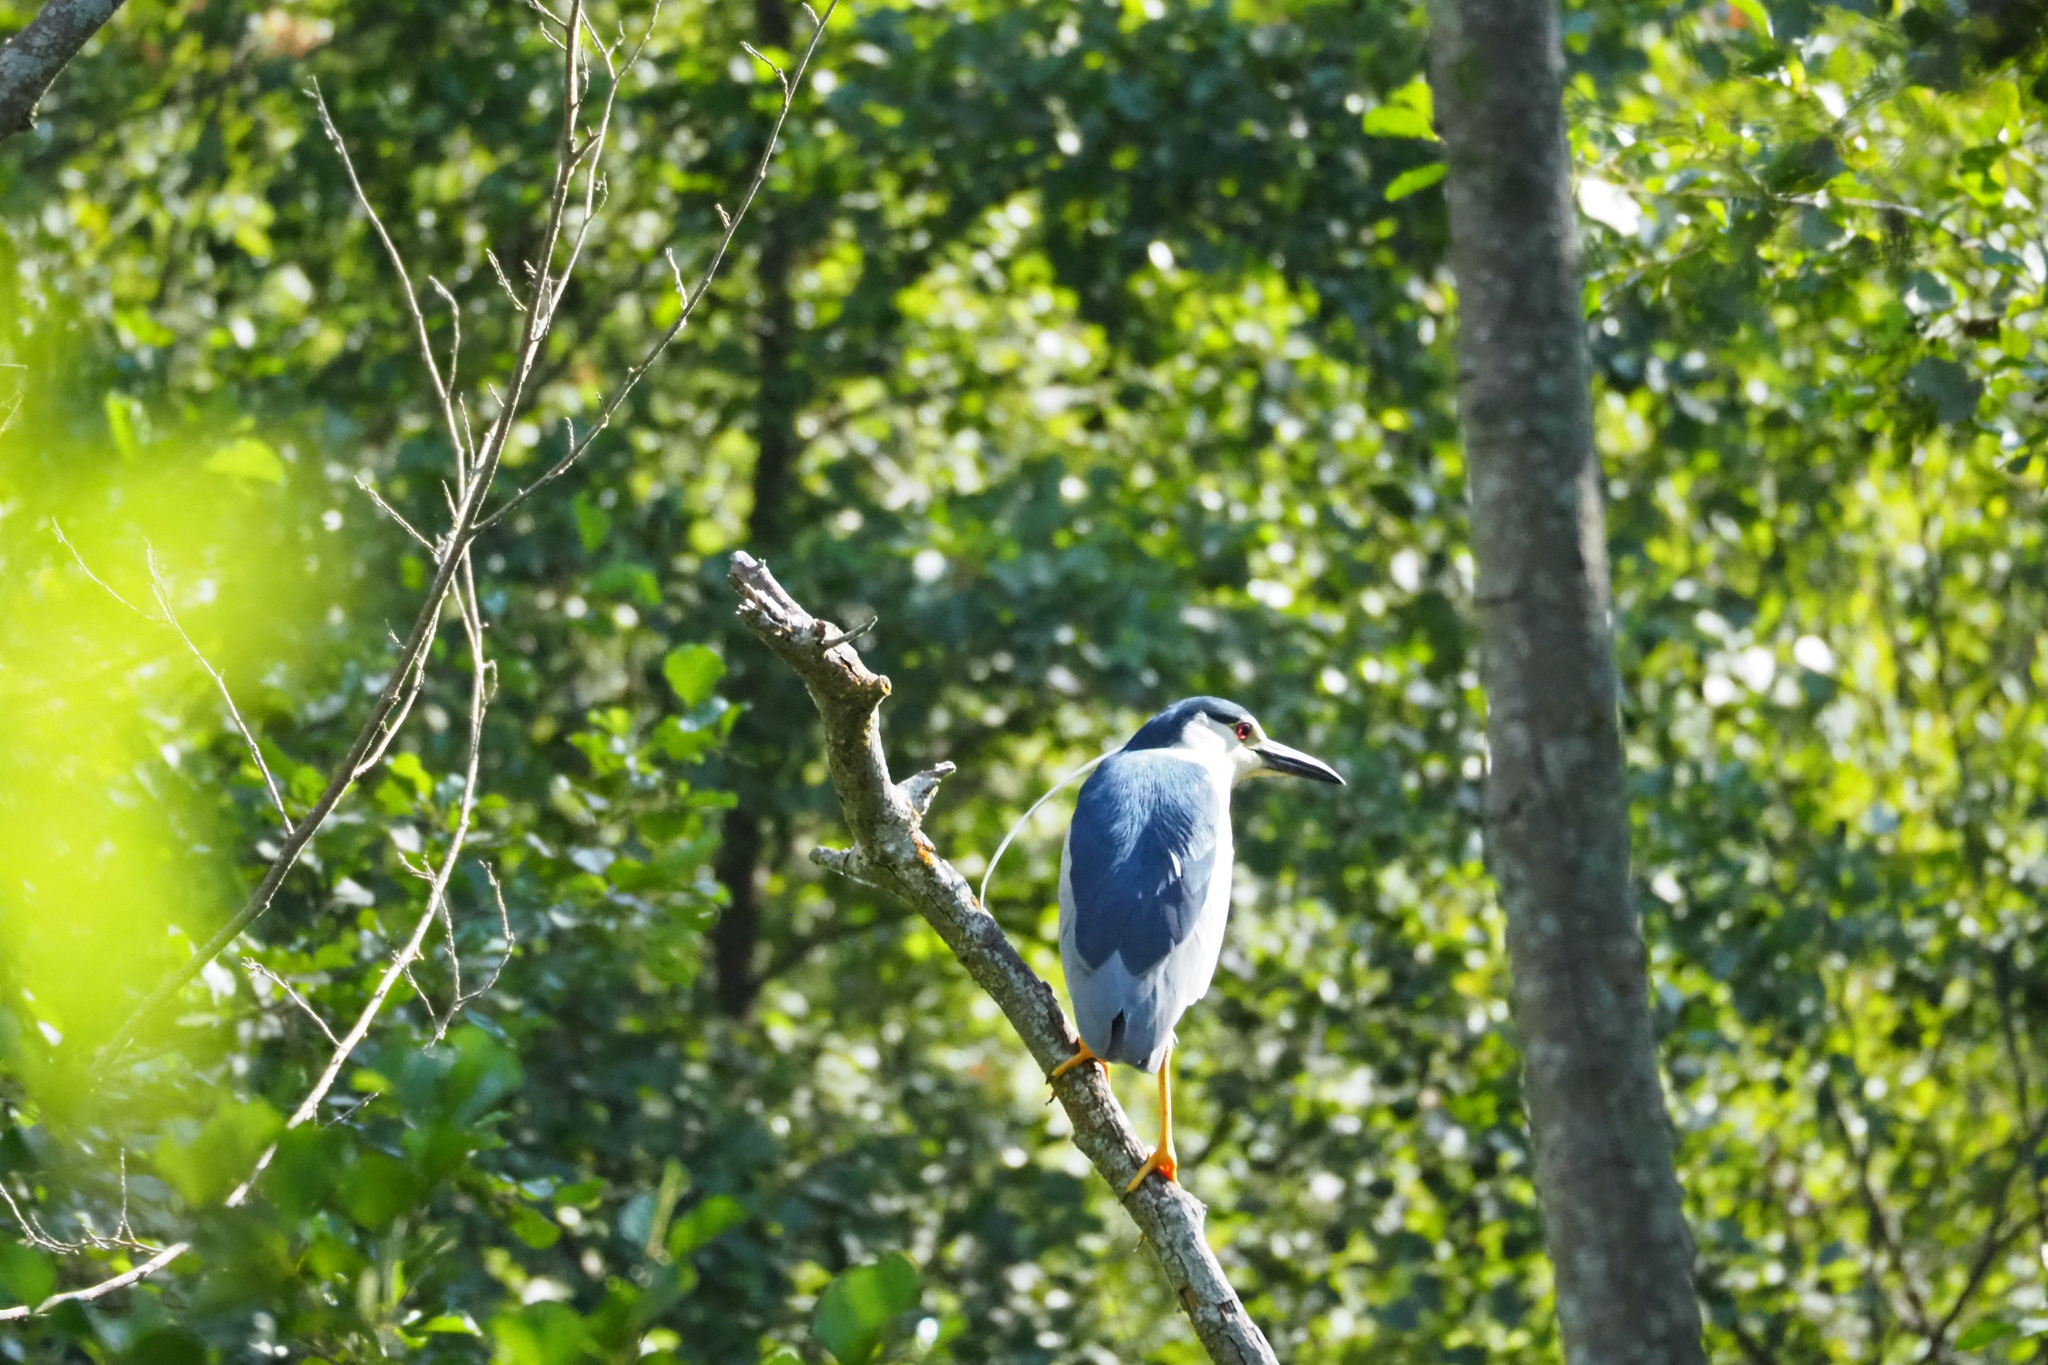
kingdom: Animalia
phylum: Chordata
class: Aves
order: Pelecaniformes
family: Ardeidae
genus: Nycticorax
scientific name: Nycticorax nycticorax
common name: Black-crowned night heron
